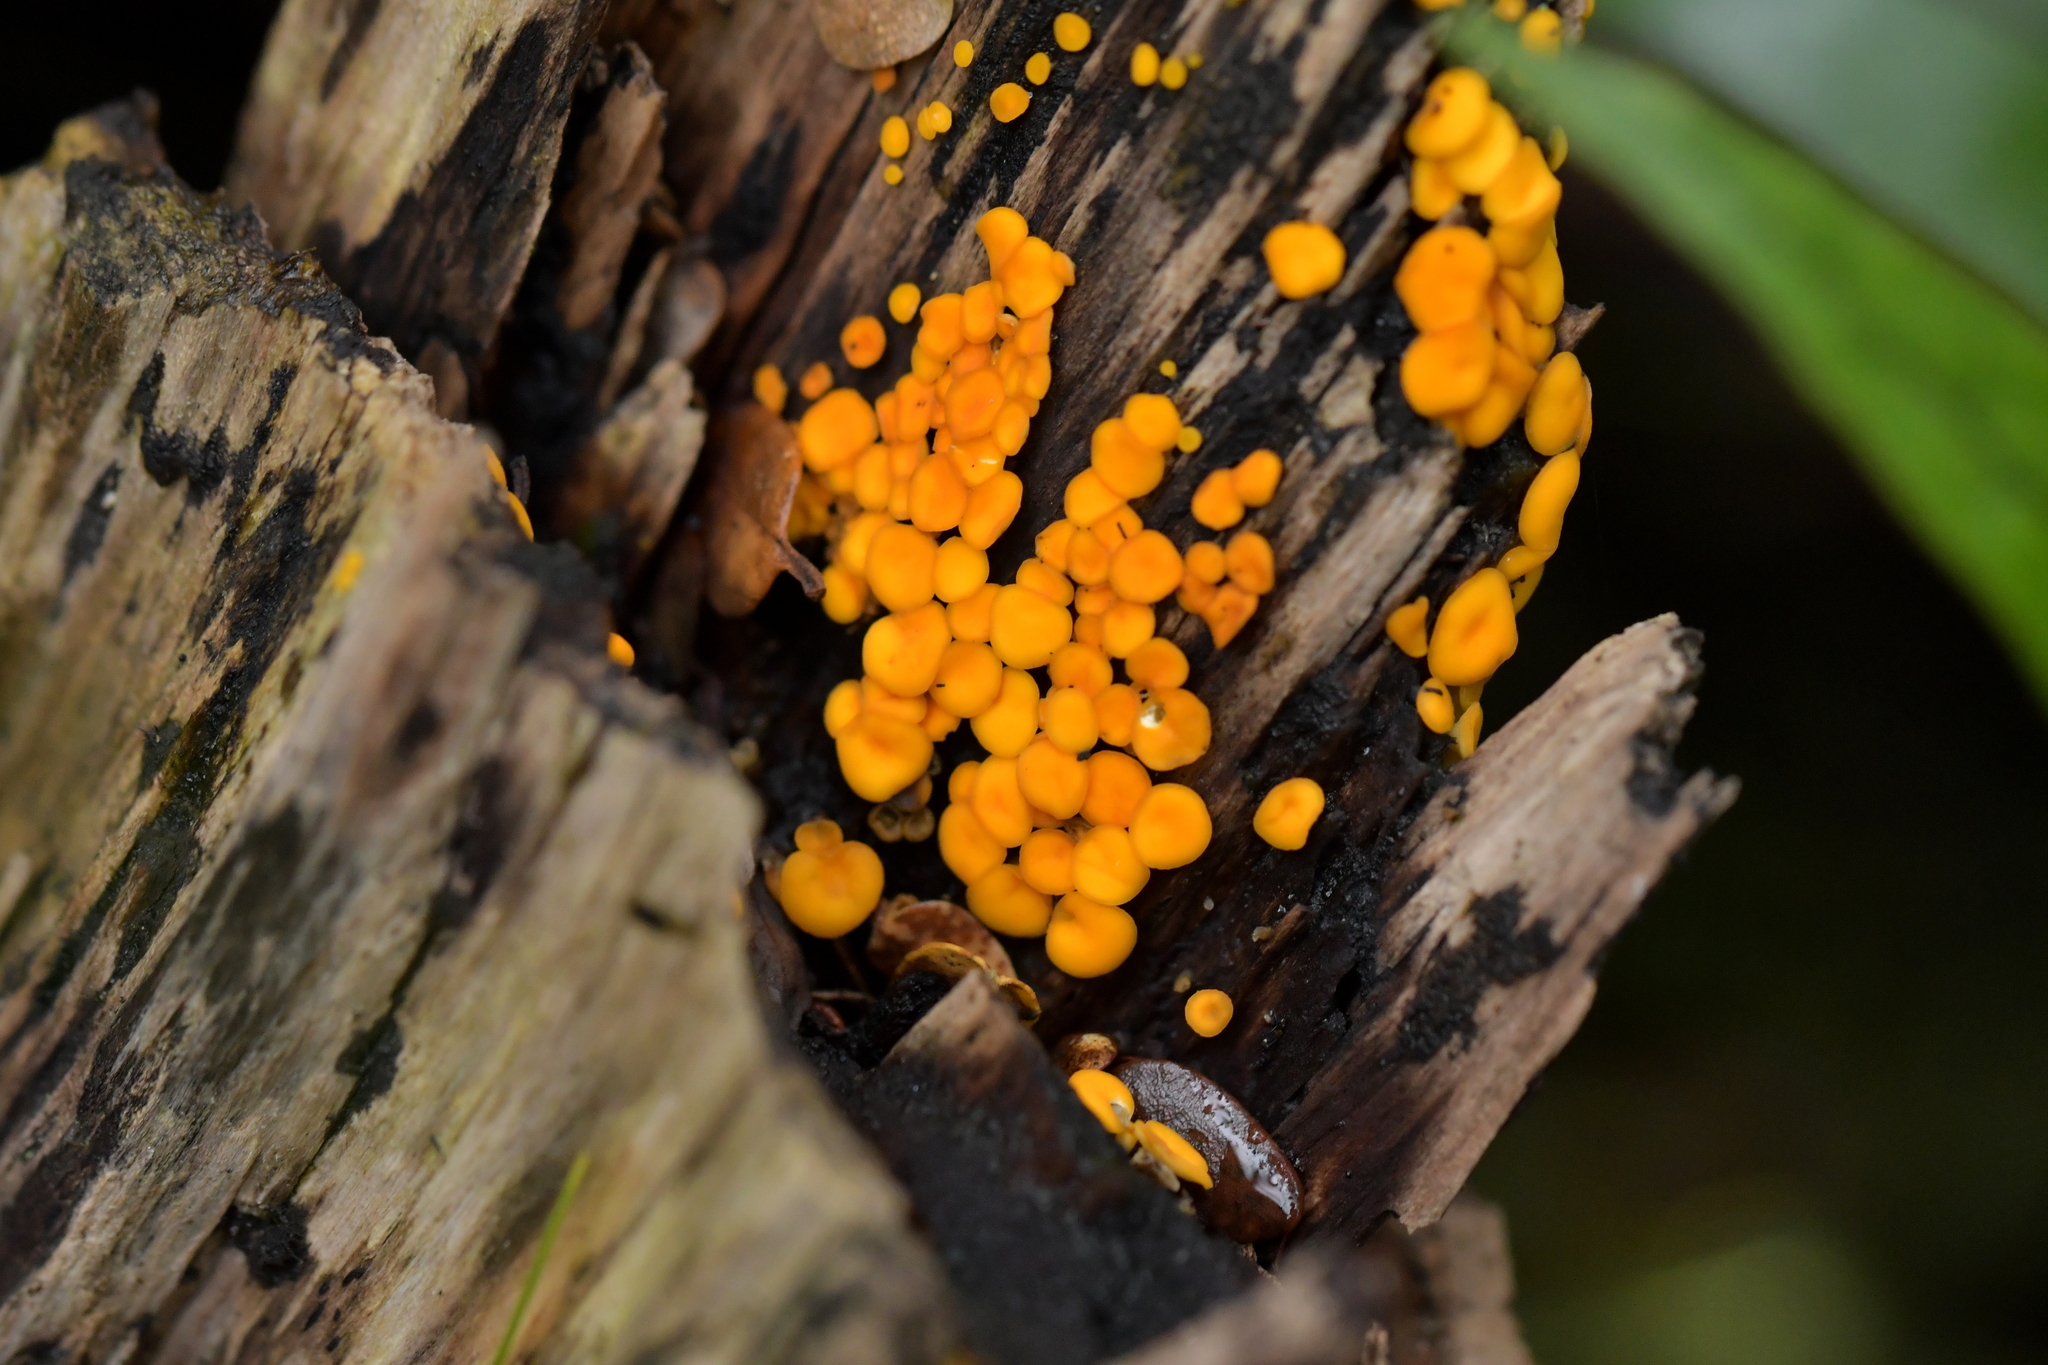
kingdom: Fungi
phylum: Ascomycota
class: Leotiomycetes
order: Helotiales
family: Pezizellaceae
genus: Calycina
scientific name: Calycina citrina
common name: Yellow fairy cups
